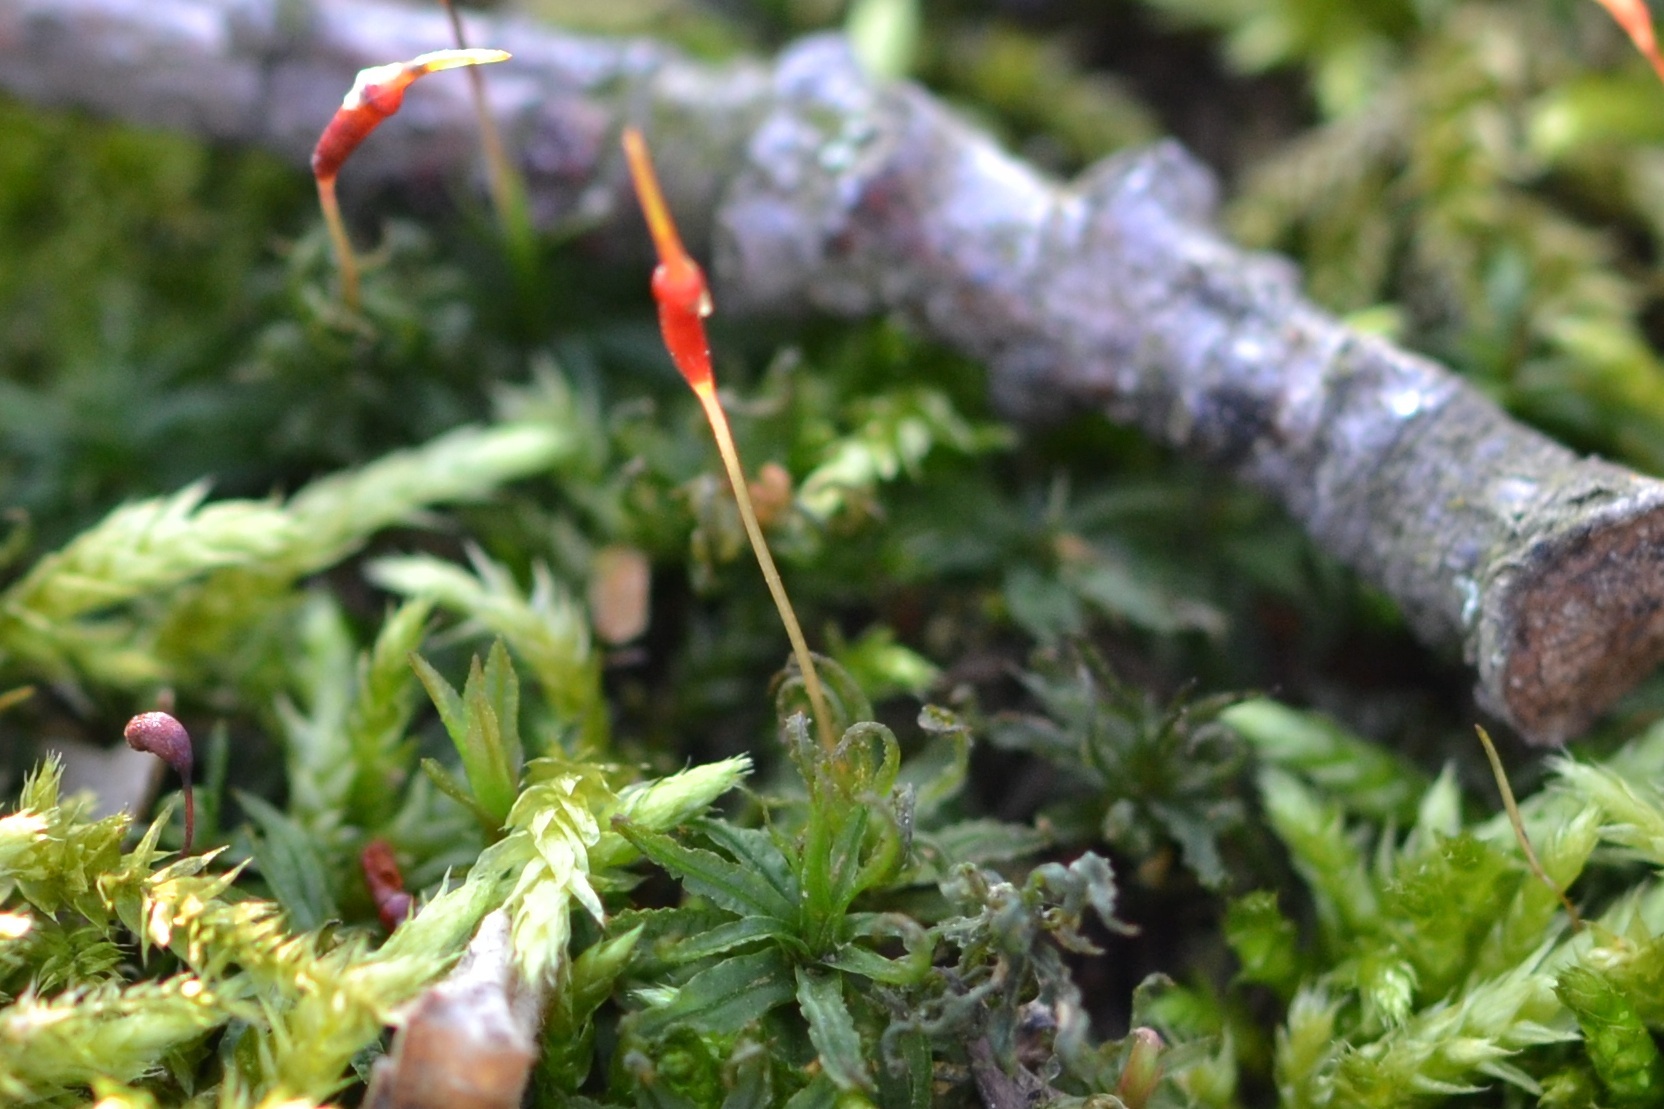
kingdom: Plantae
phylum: Bryophyta
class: Polytrichopsida
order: Polytrichales
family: Polytrichaceae
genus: Atrichum
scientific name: Atrichum undulatum
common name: Common smoothcap
